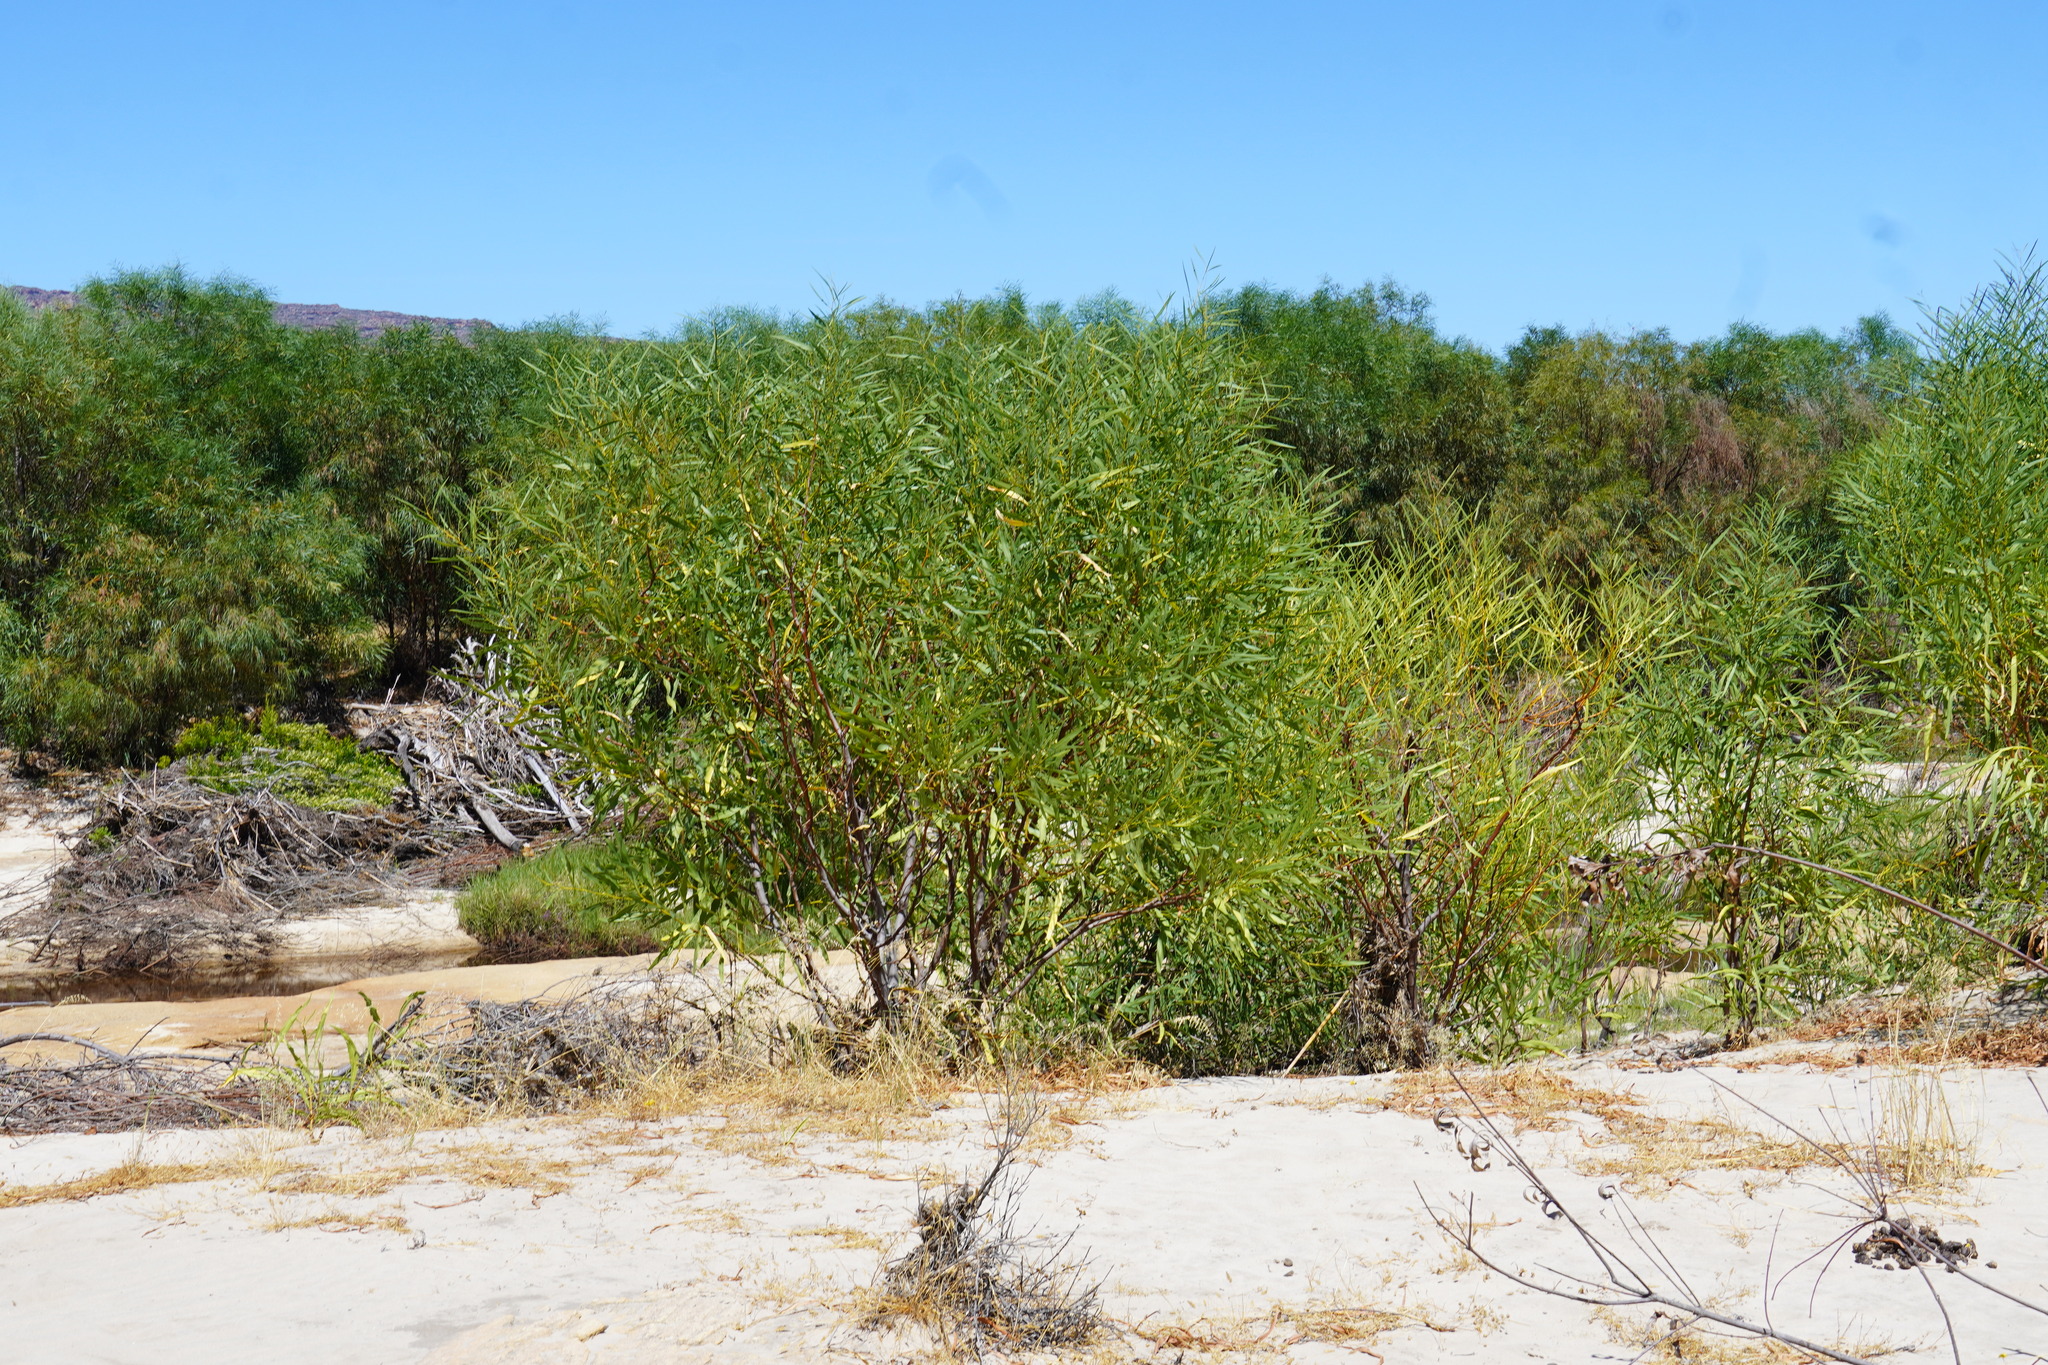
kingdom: Plantae
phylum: Tracheophyta
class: Magnoliopsida
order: Fabales
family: Fabaceae
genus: Acacia
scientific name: Acacia saligna
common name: Orange wattle
